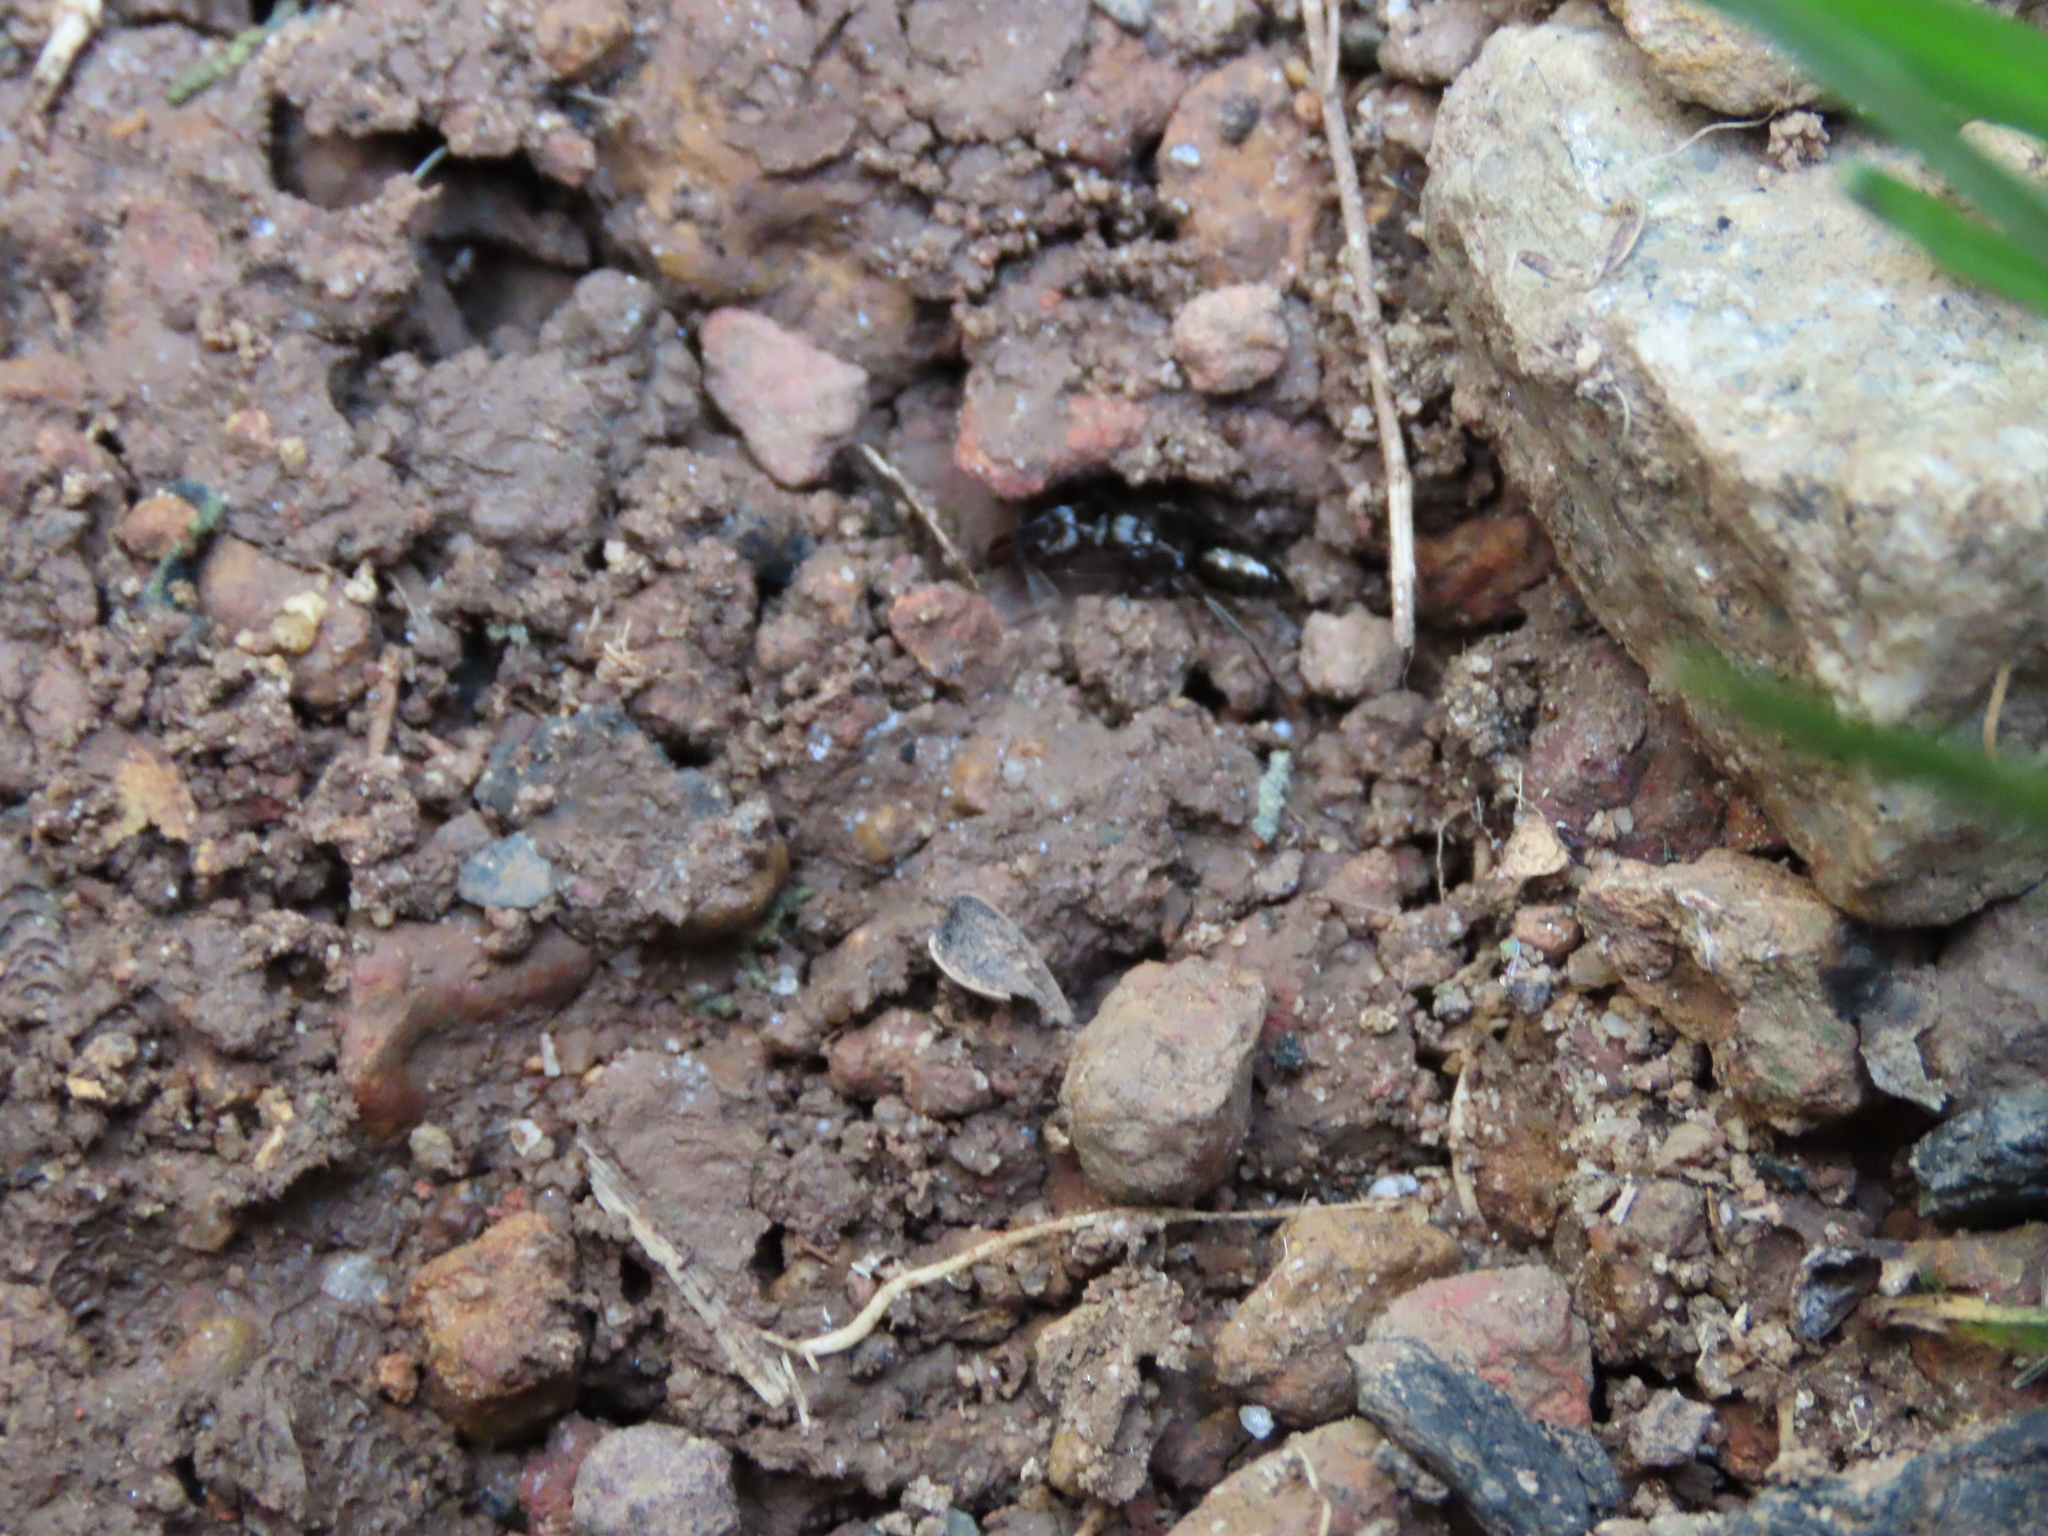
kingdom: Animalia
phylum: Arthropoda
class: Insecta
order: Hymenoptera
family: Formicidae
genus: Odontomachus
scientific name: Odontomachus simillimus
